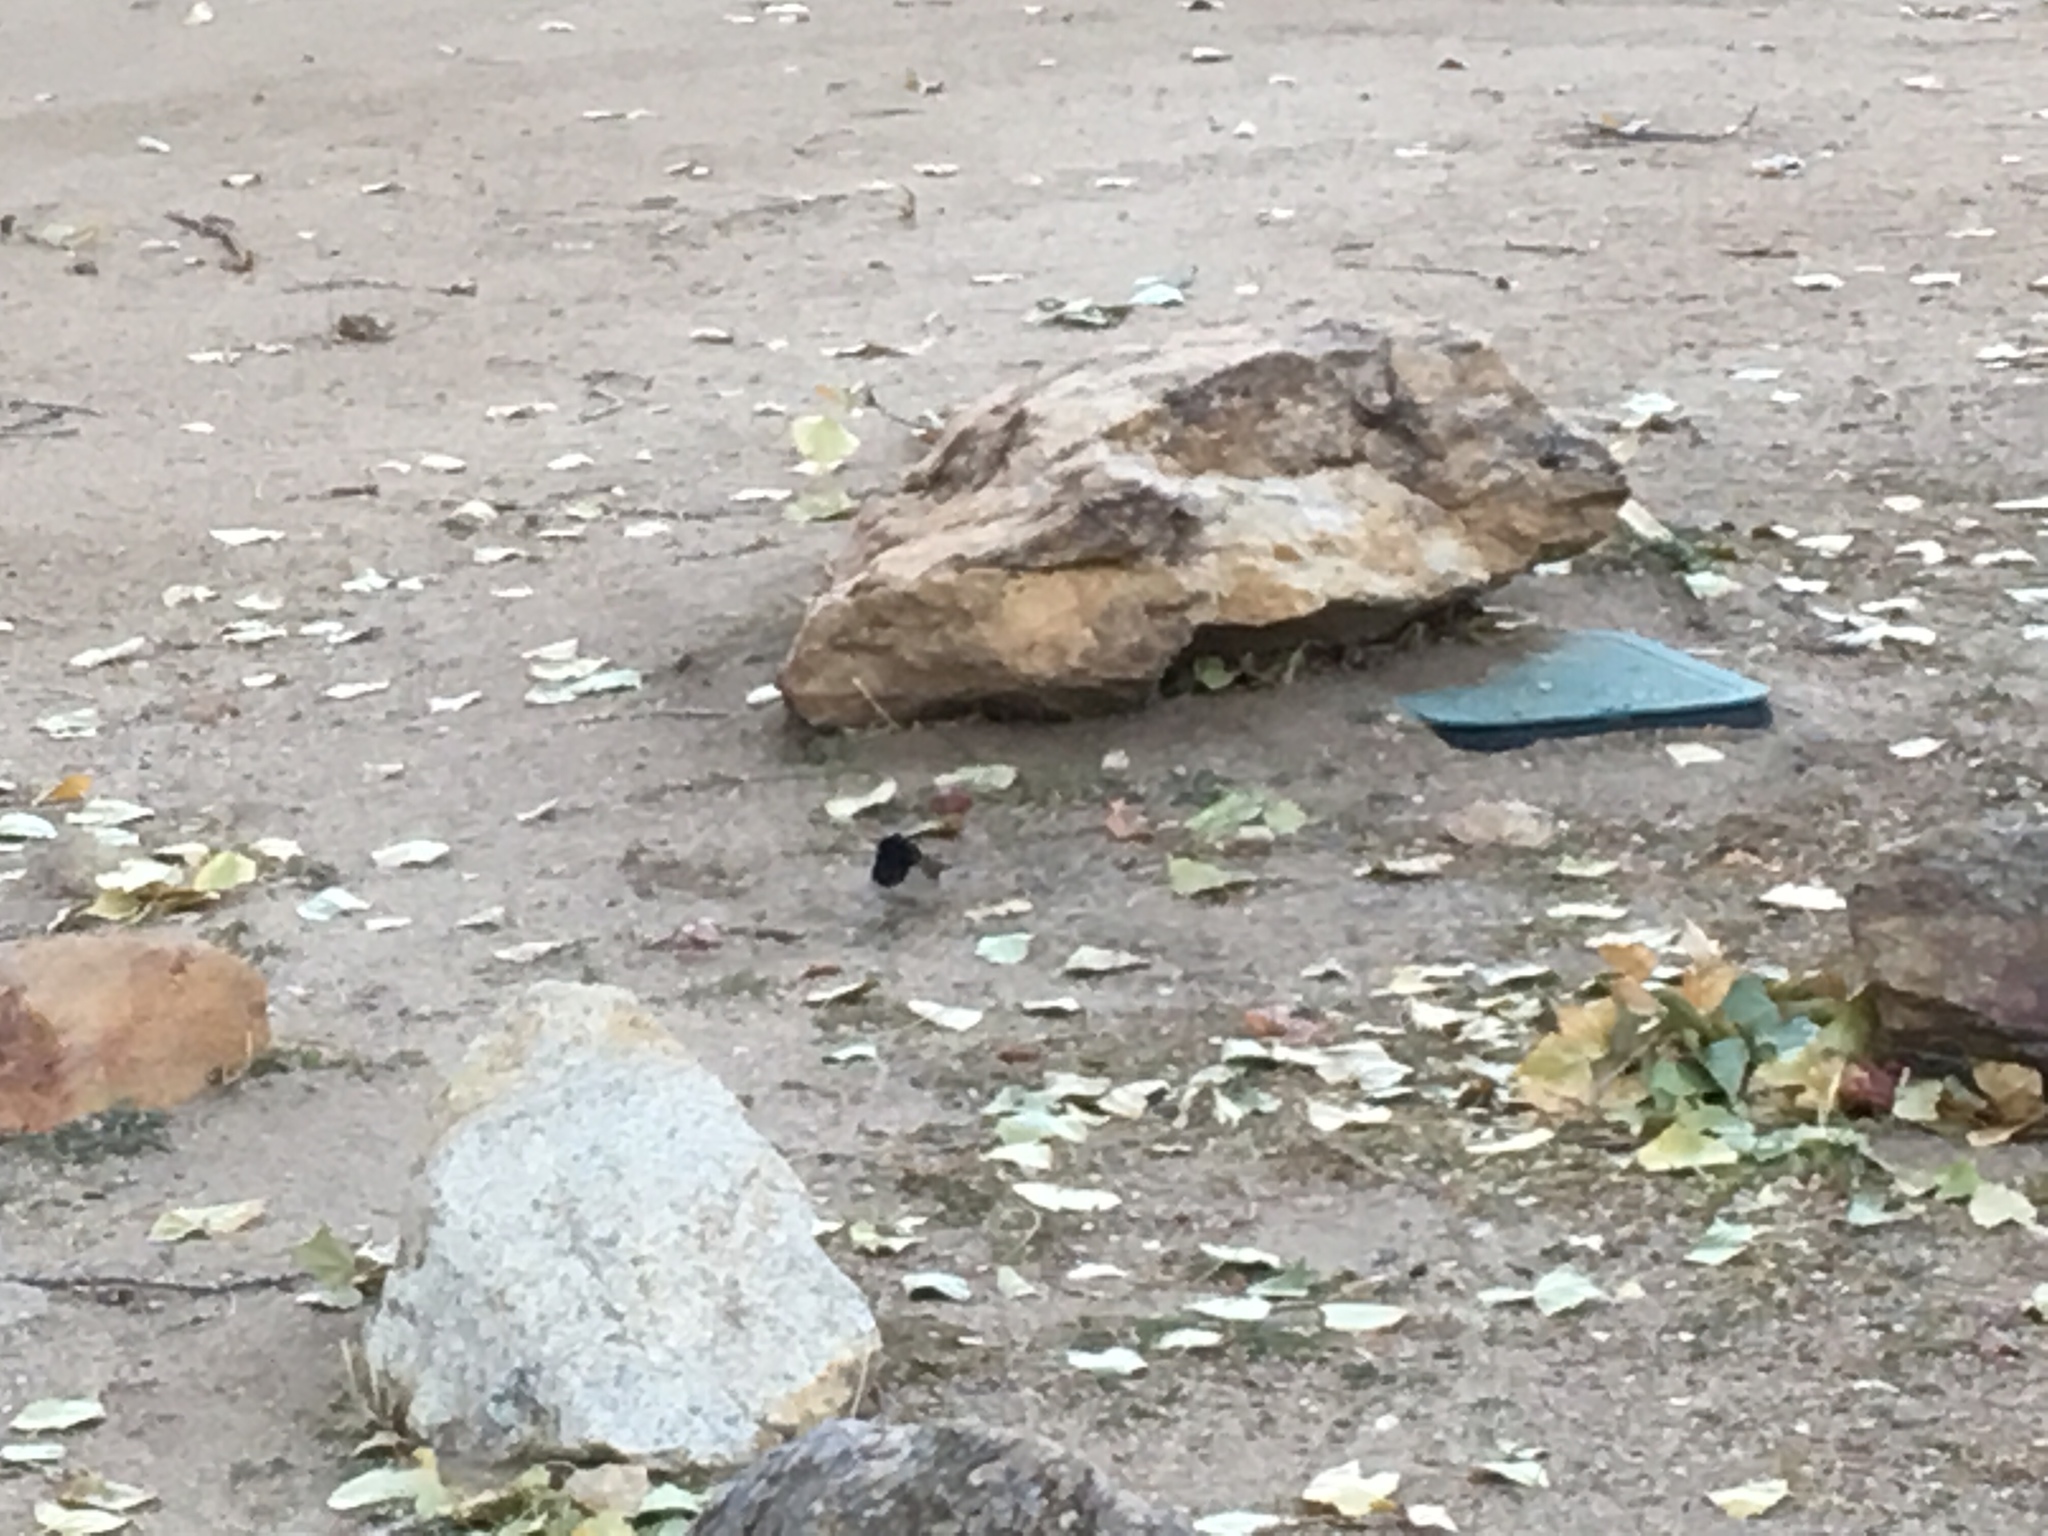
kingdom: Animalia
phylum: Chordata
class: Aves
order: Passeriformes
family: Passerellidae
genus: Junco
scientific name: Junco hyemalis
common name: Dark-eyed junco
